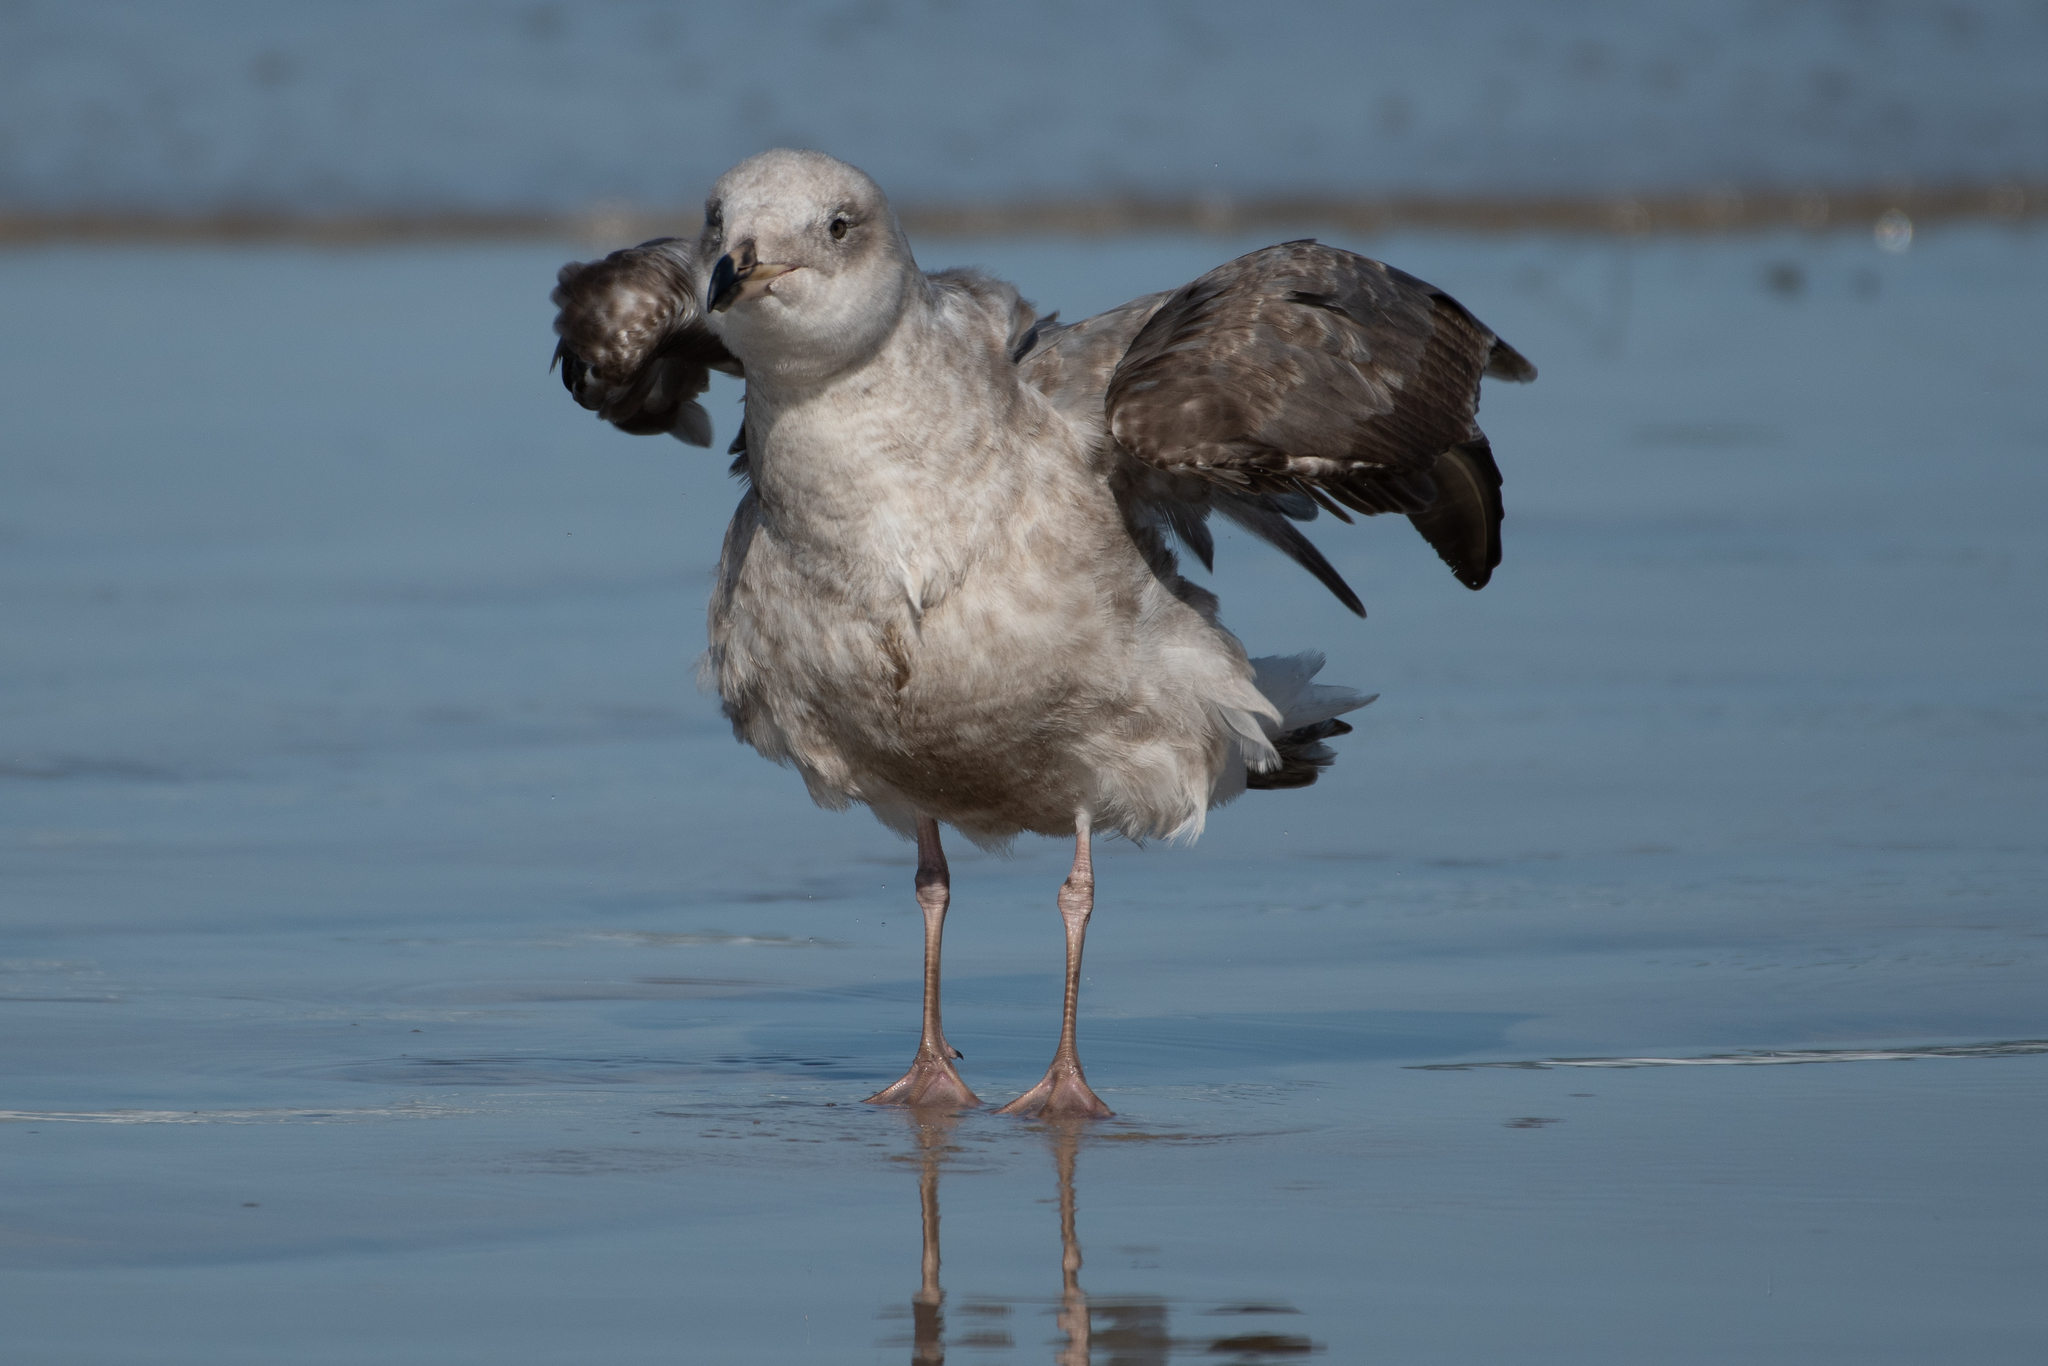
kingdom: Animalia
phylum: Chordata
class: Aves
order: Charadriiformes
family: Laridae
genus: Larus
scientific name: Larus occidentalis
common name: Western gull
